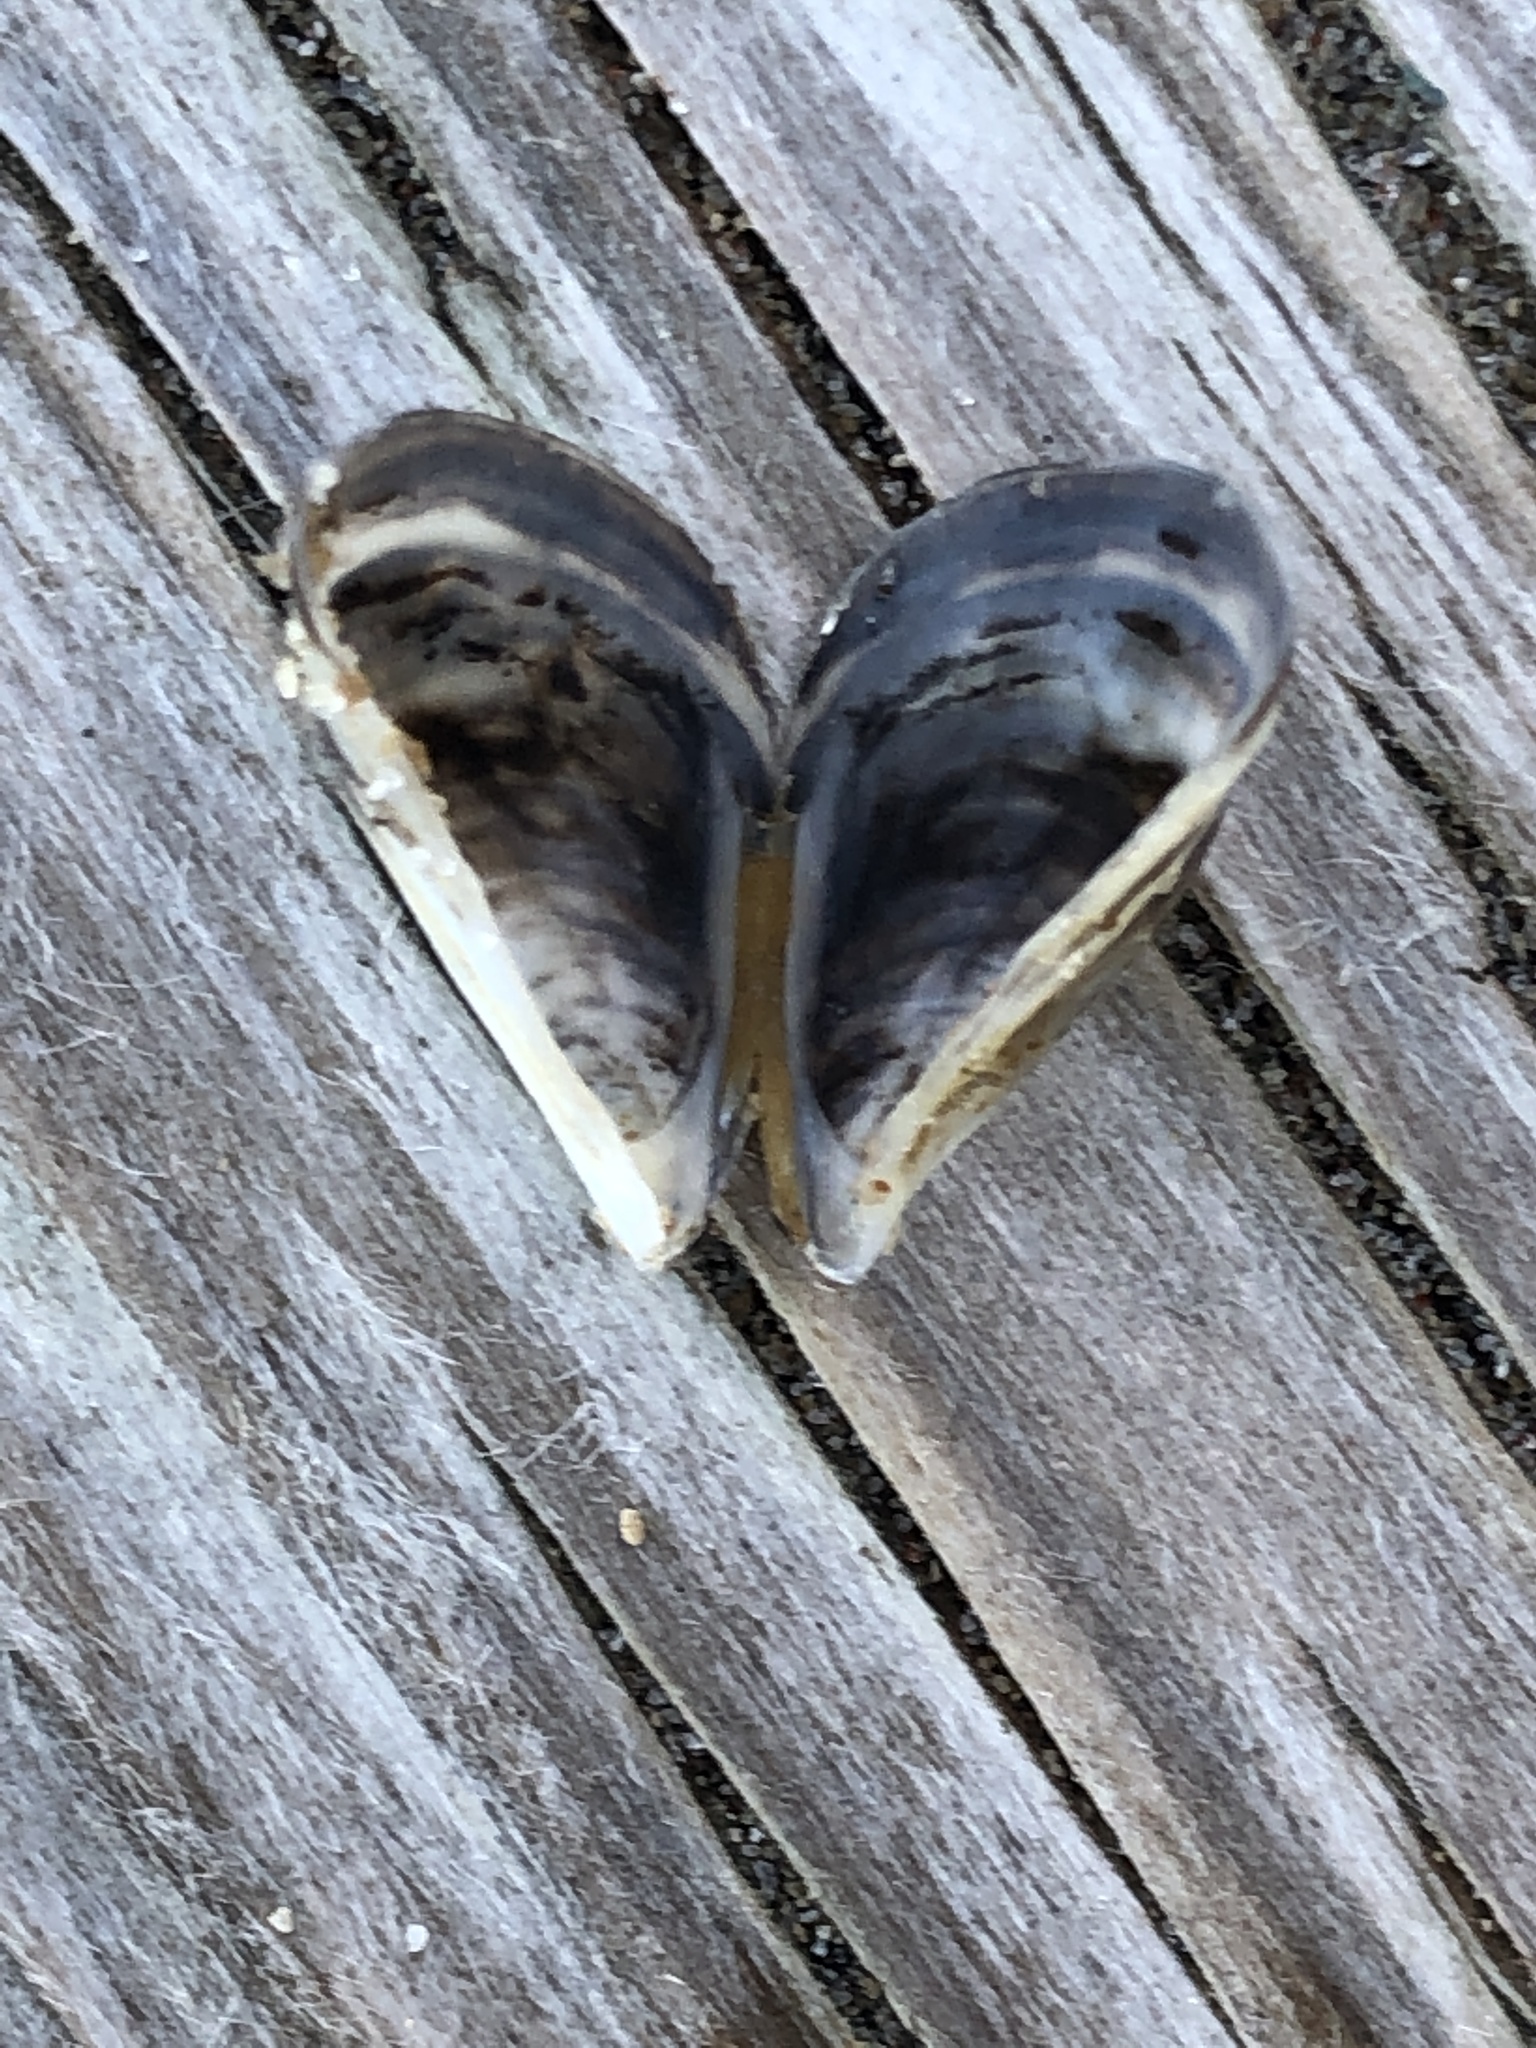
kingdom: Animalia
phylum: Mollusca
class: Bivalvia
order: Myida
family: Dreissenidae
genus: Dreissena
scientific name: Dreissena polymorpha
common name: Zebra mussel
